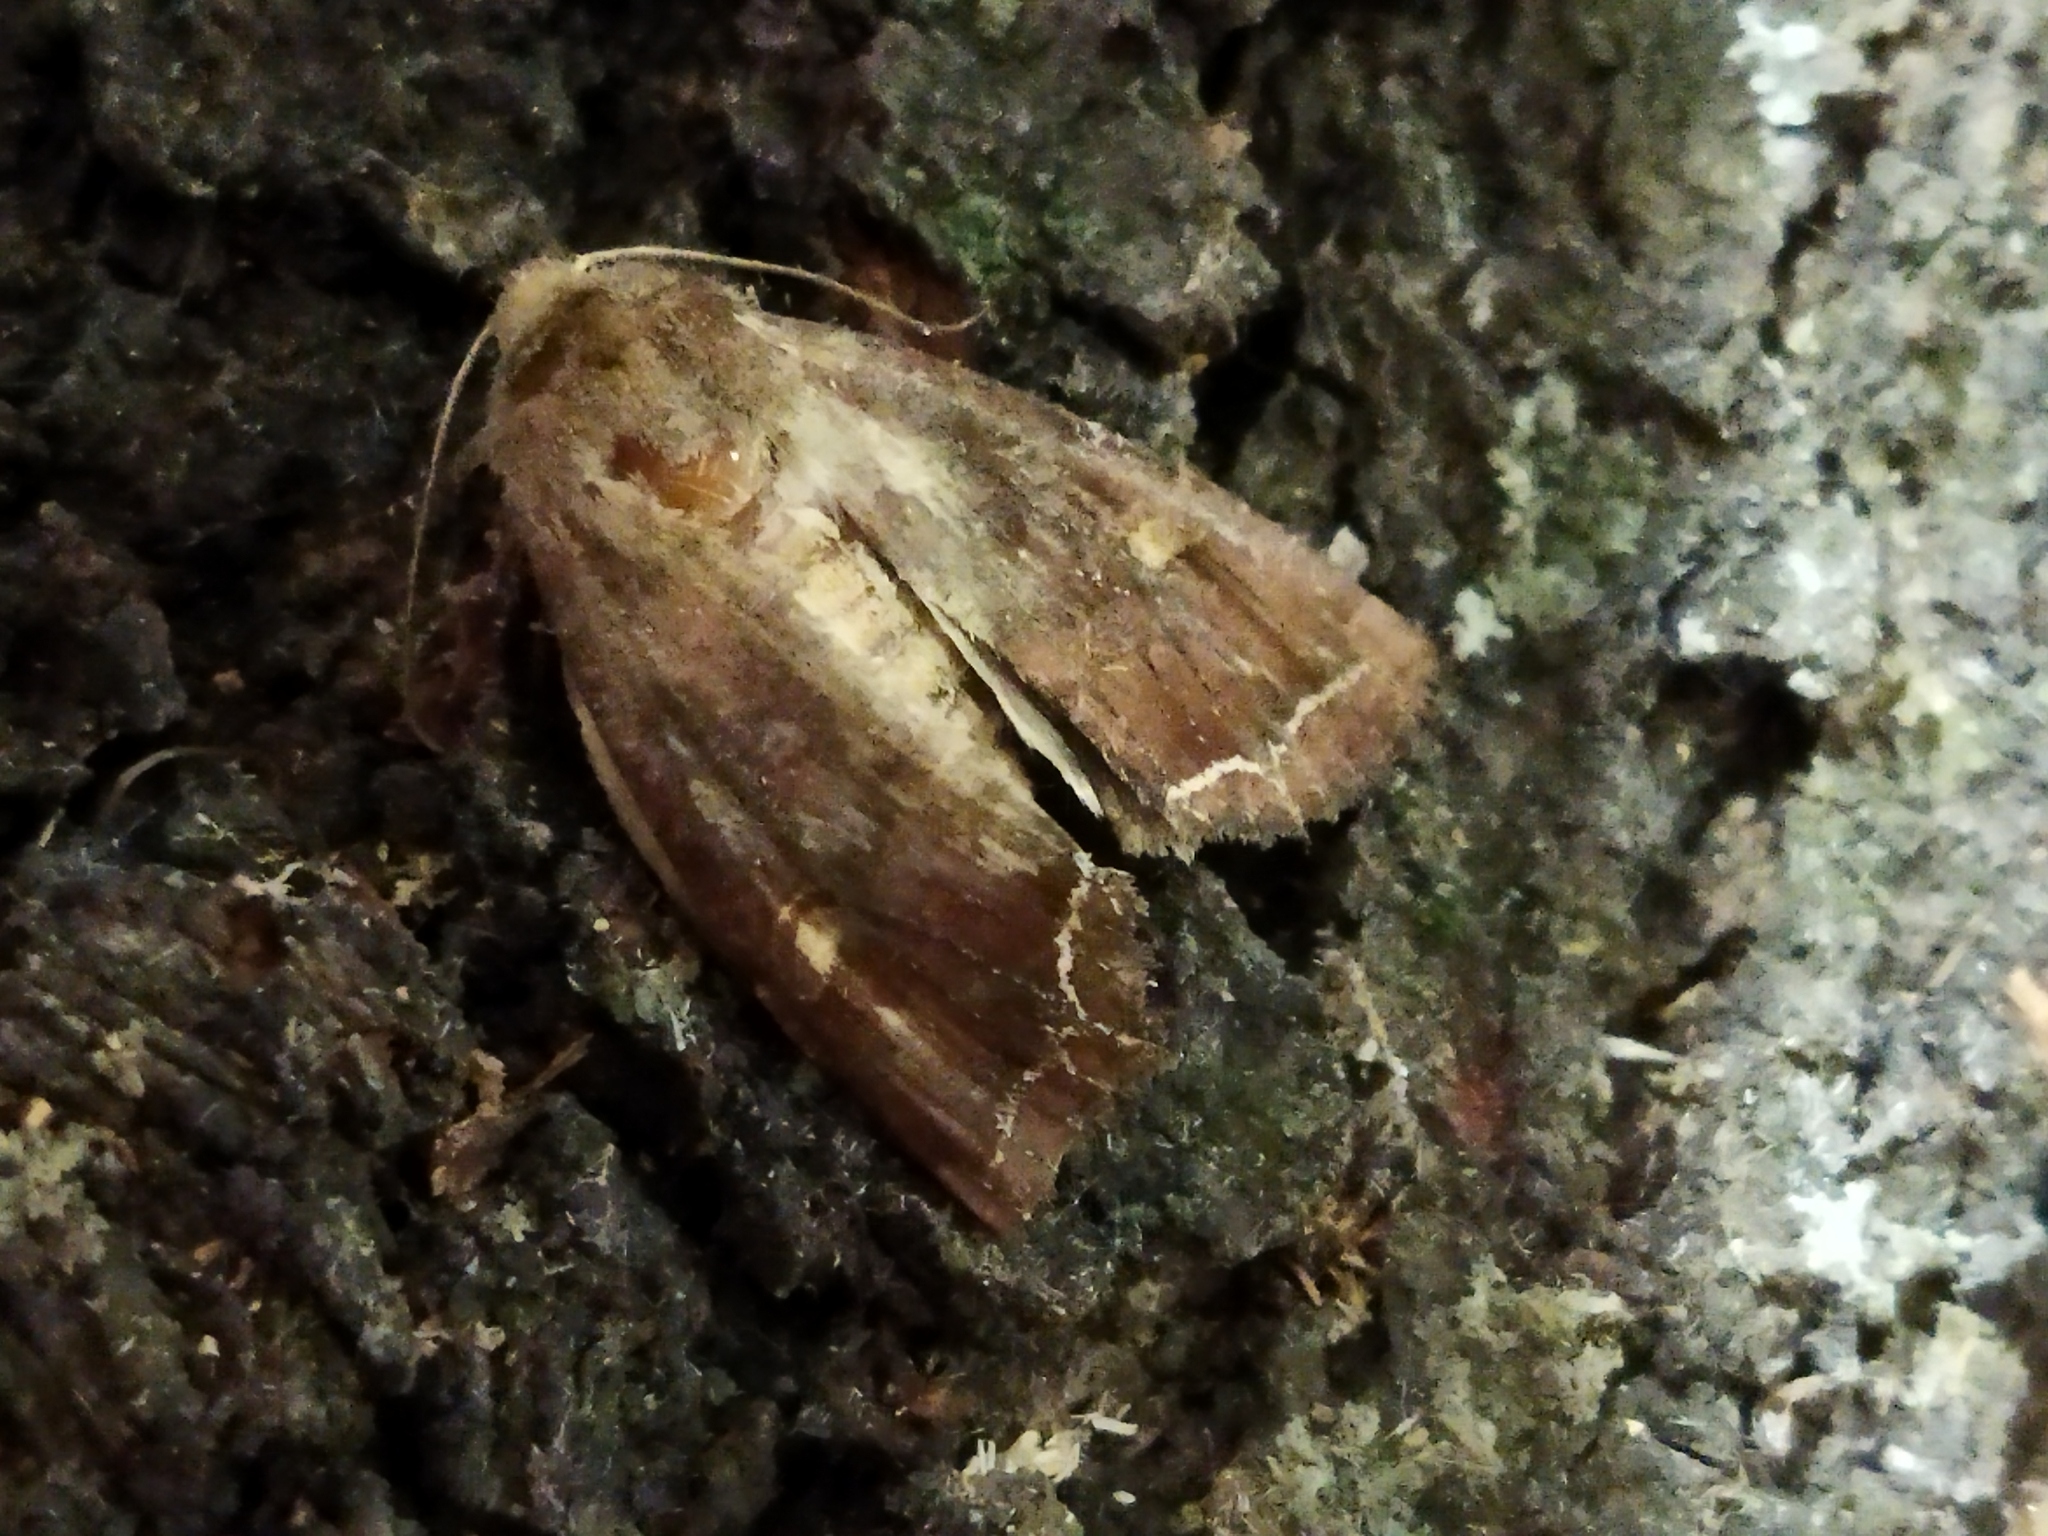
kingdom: Animalia
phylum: Arthropoda
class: Insecta
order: Lepidoptera
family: Noctuidae
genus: Lacanobia
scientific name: Lacanobia oleracea
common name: Bright-line brown-eye
